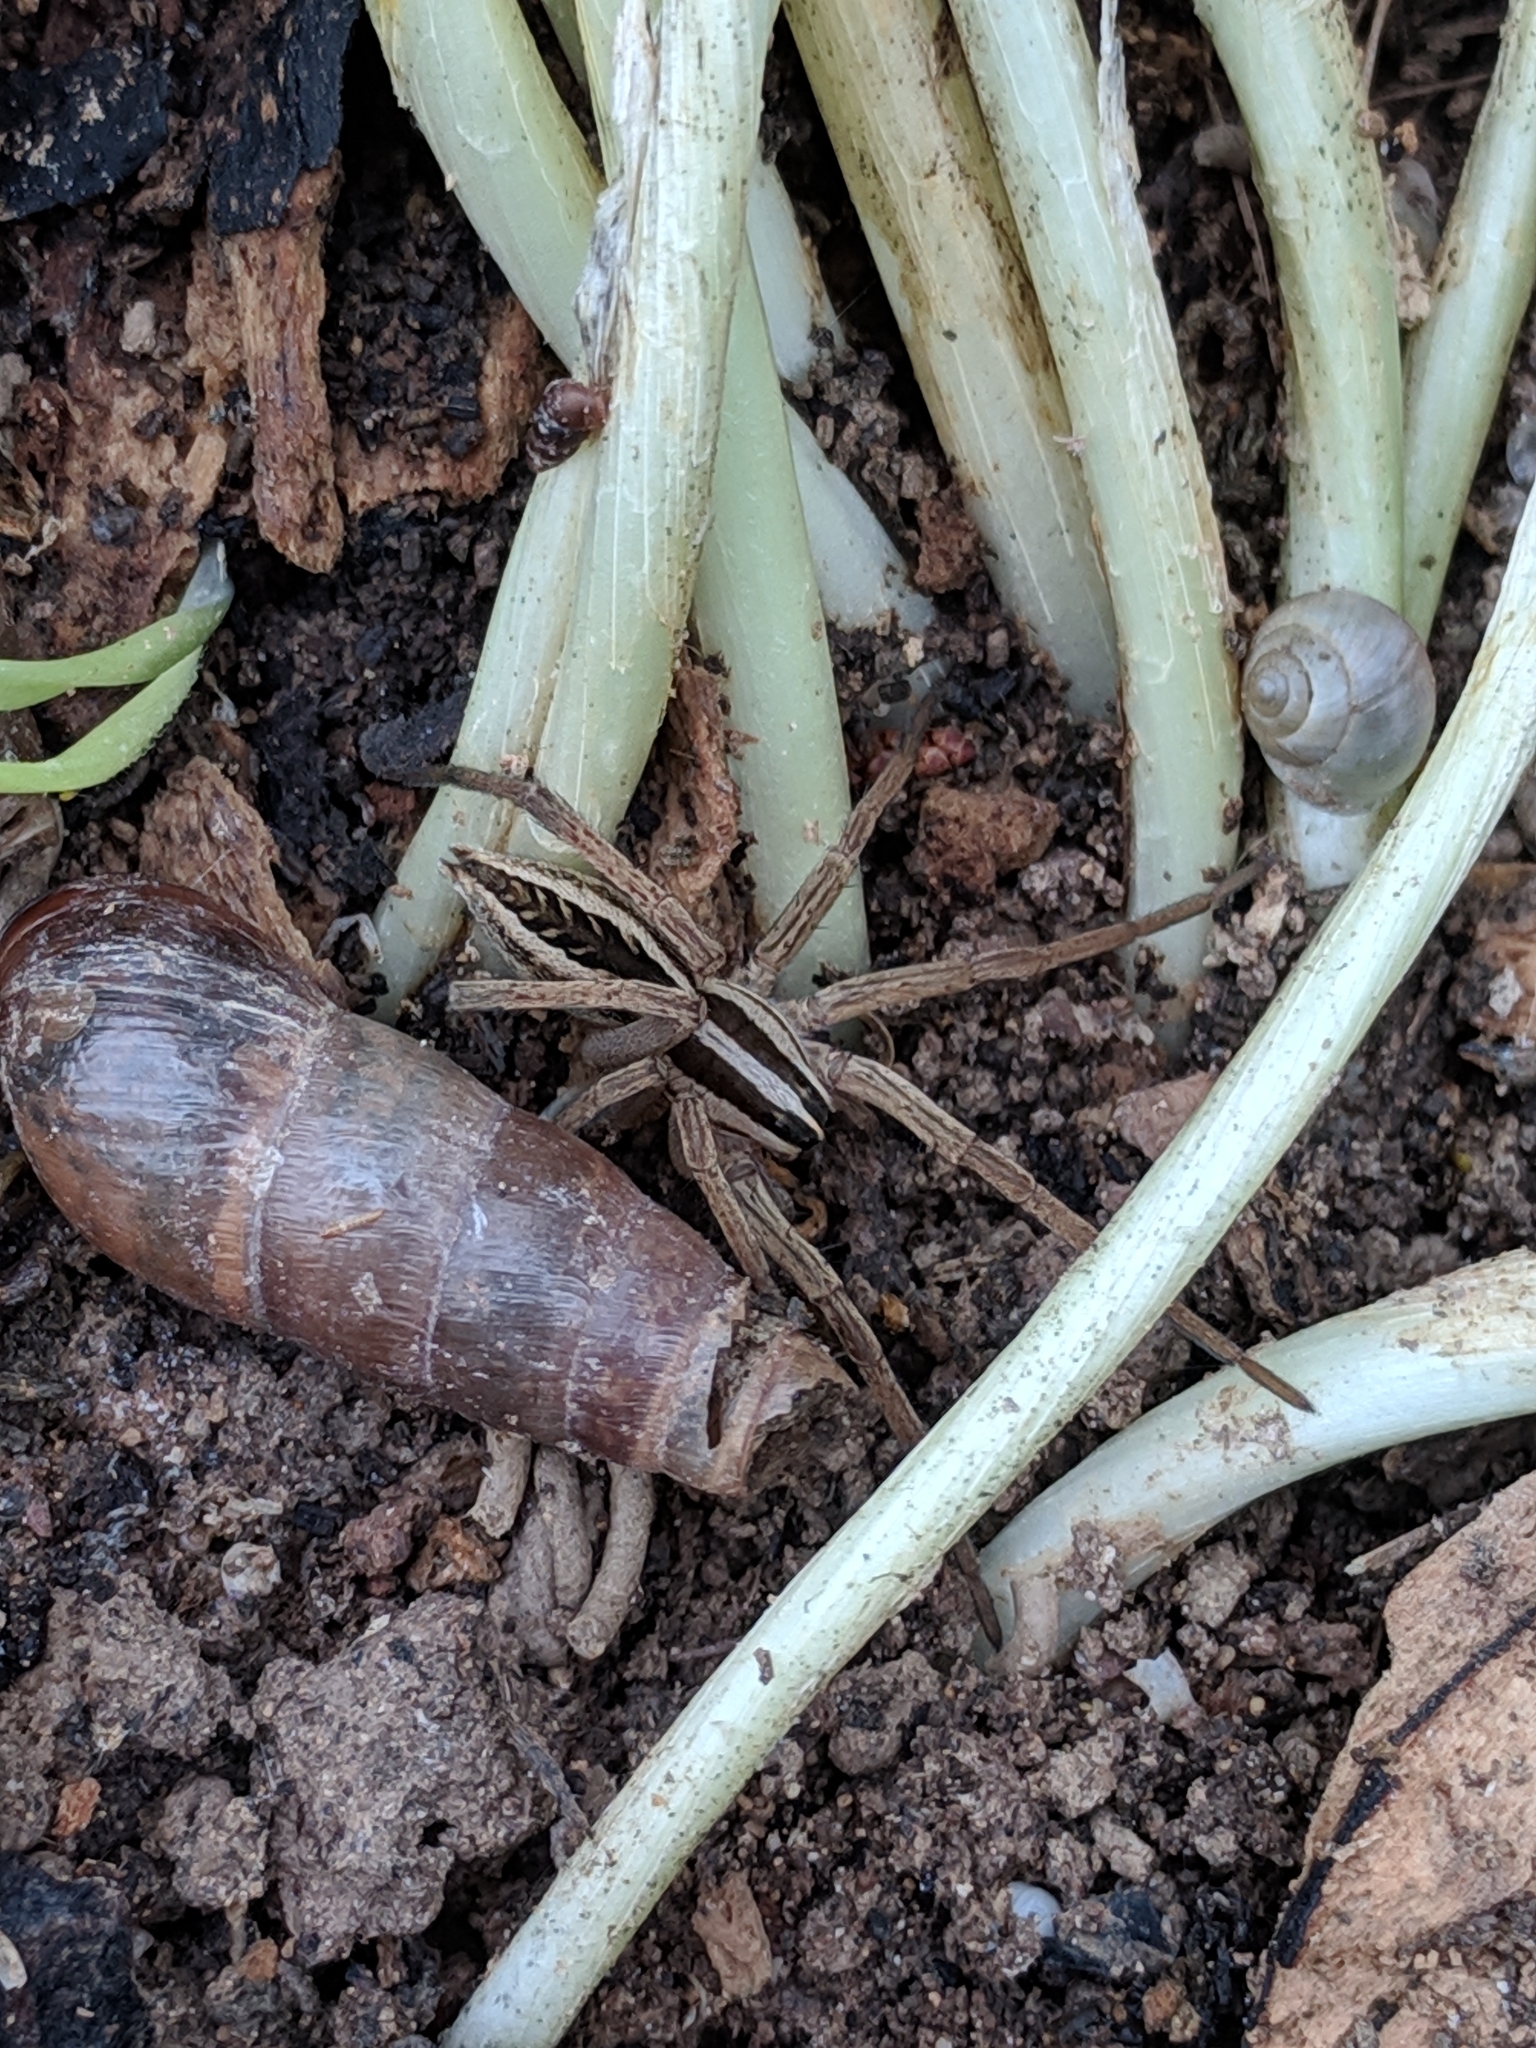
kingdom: Animalia
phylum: Arthropoda
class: Arachnida
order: Araneae
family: Lycosidae
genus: Rabidosa
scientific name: Rabidosa rabida
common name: Rabid wolf spider
